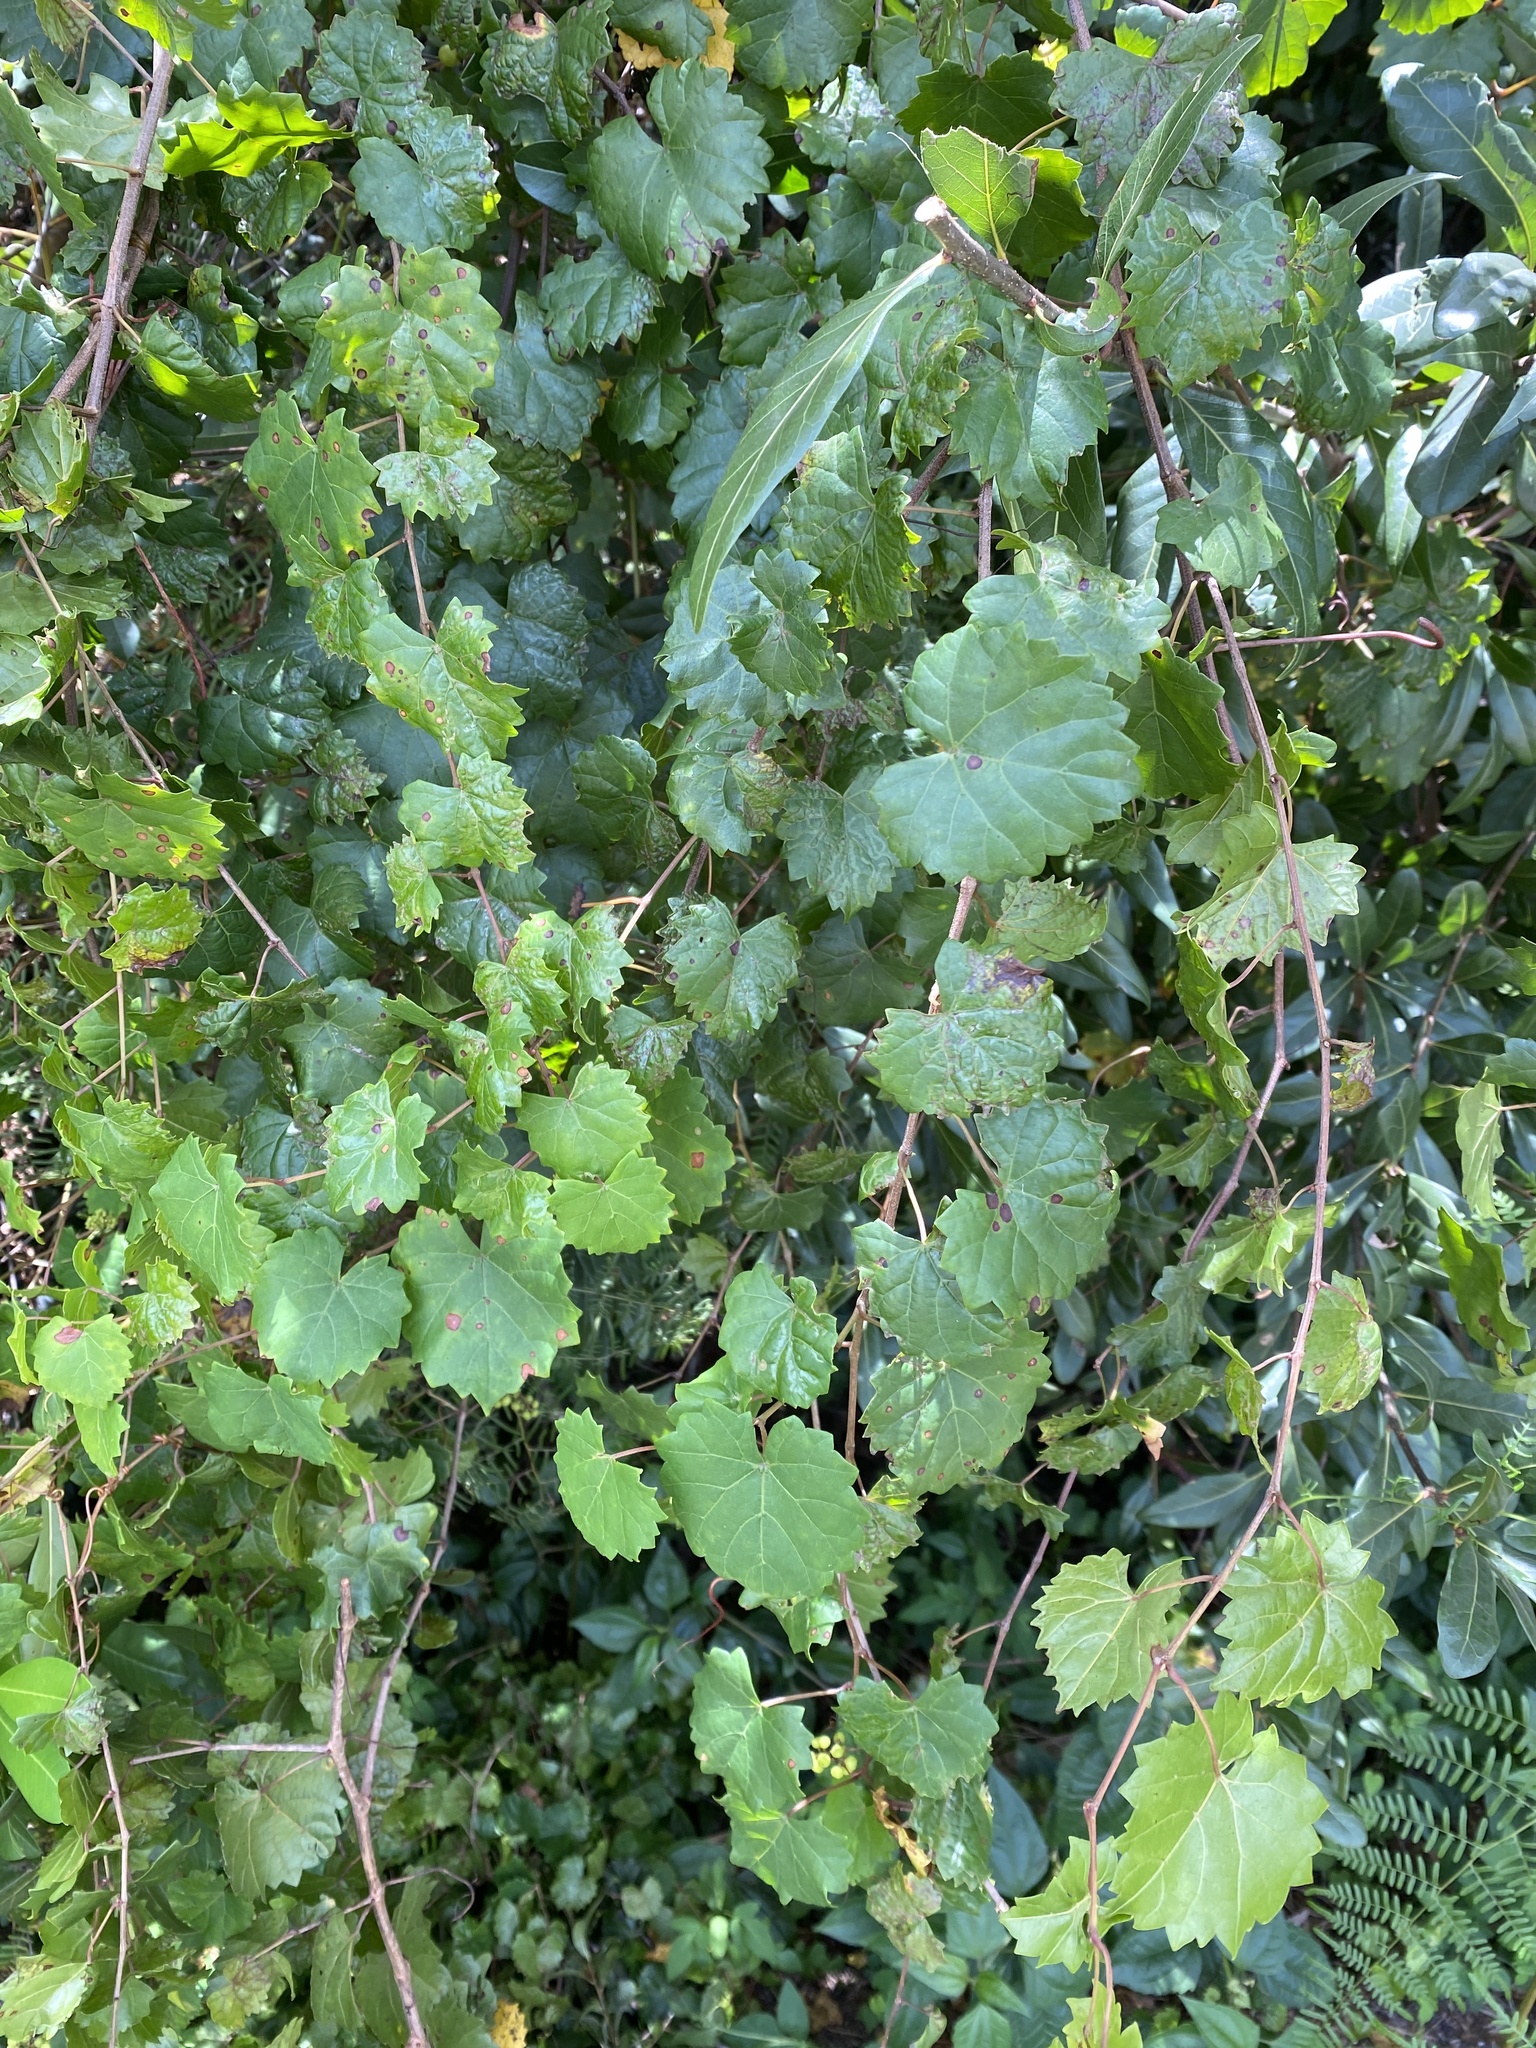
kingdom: Plantae
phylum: Tracheophyta
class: Magnoliopsida
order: Vitales
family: Vitaceae
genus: Vitis
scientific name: Vitis rotundifolia
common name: Muscadine grape
